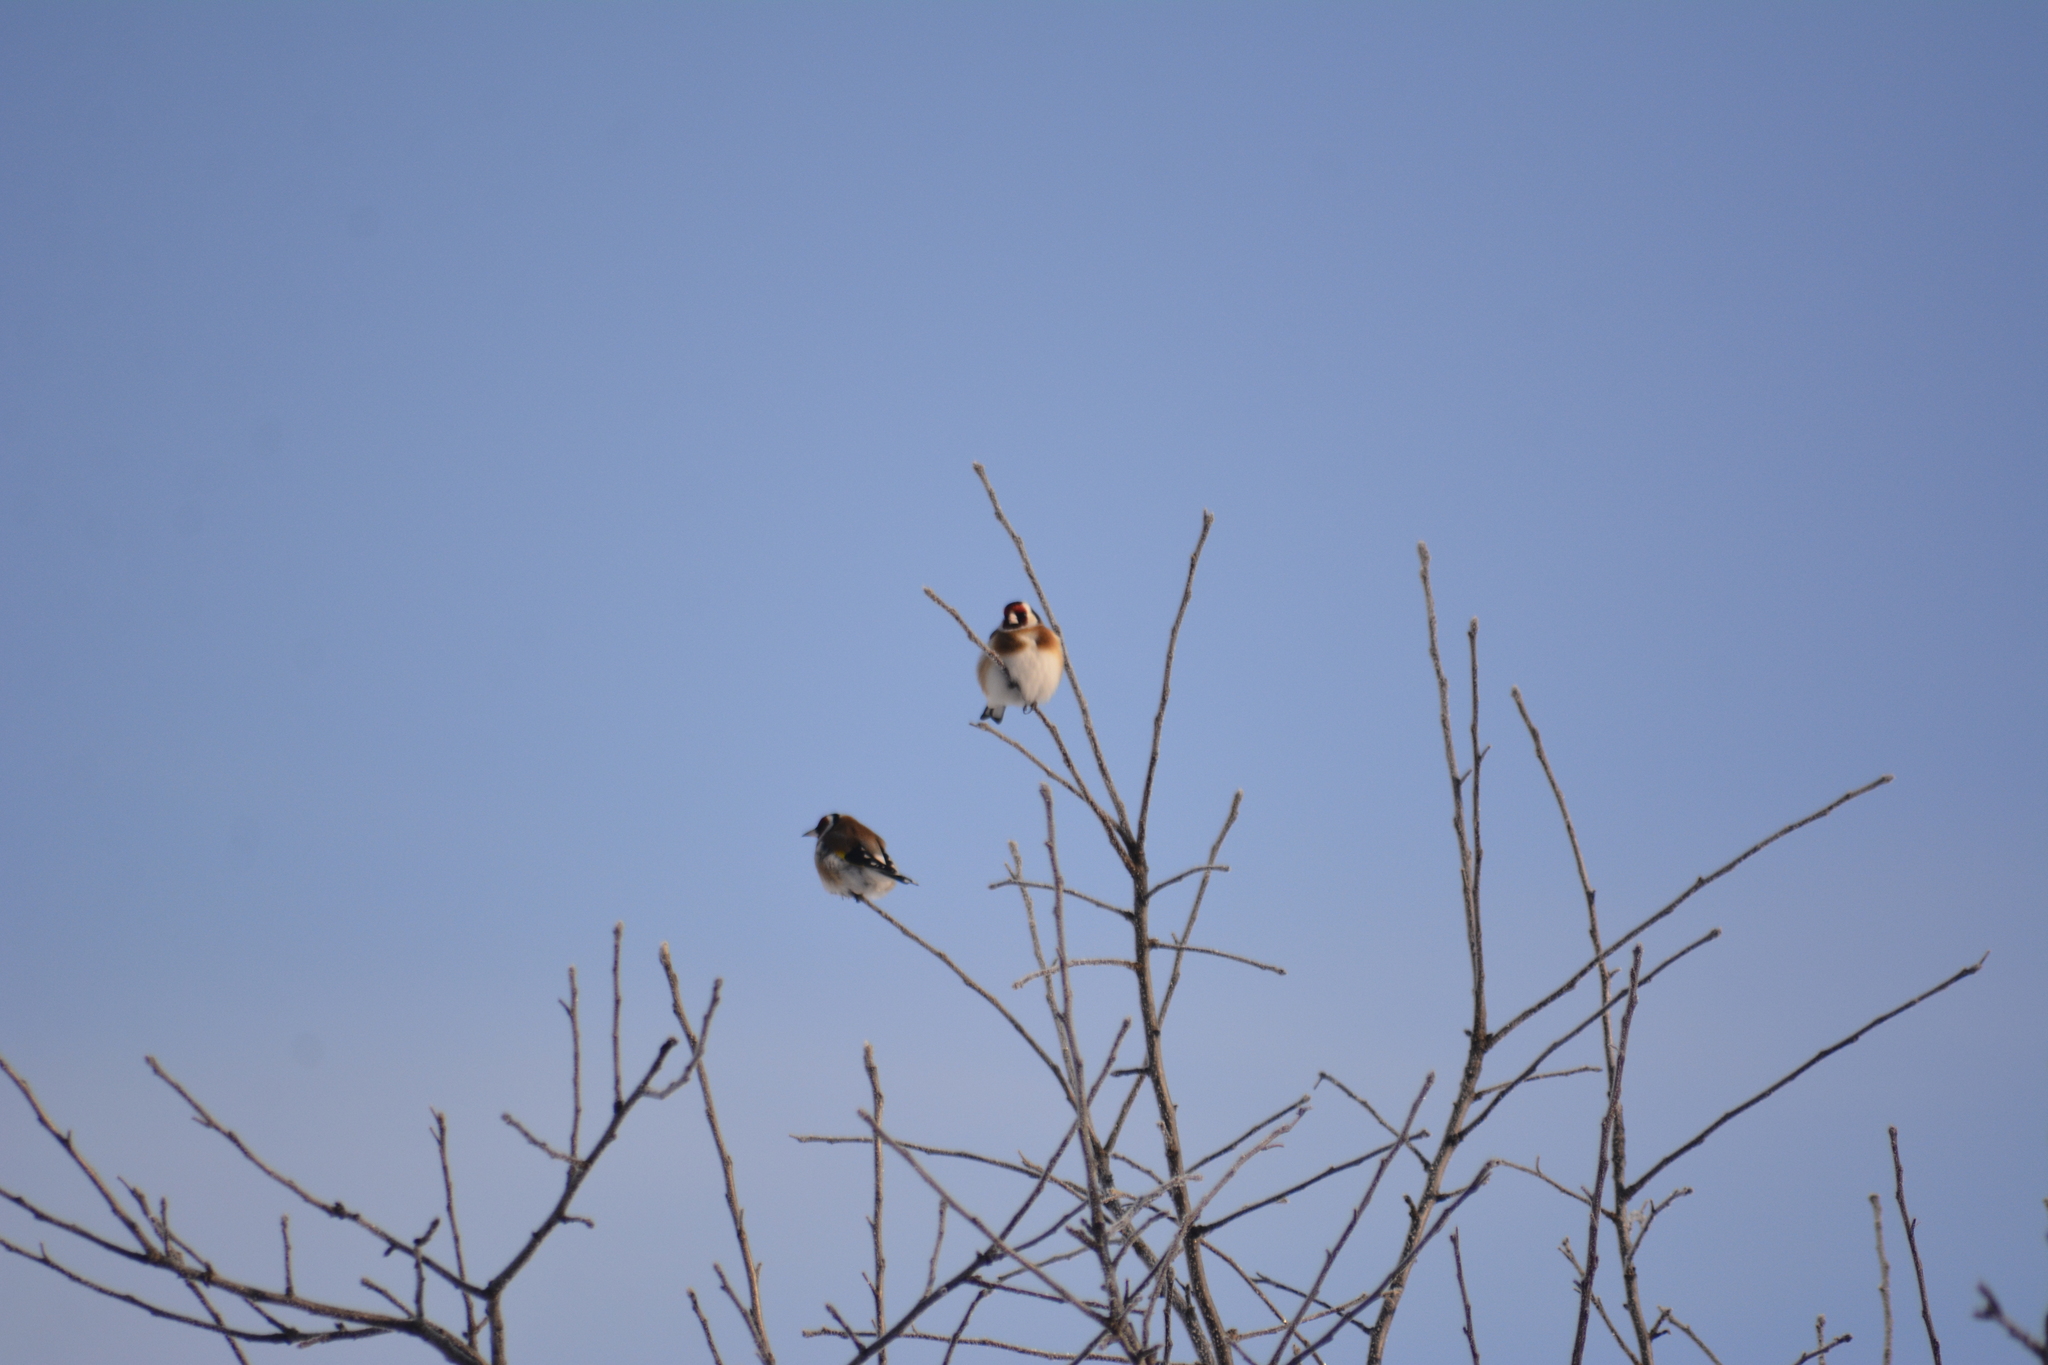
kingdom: Animalia
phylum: Chordata
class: Aves
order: Passeriformes
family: Fringillidae
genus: Carduelis
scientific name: Carduelis carduelis
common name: European goldfinch
